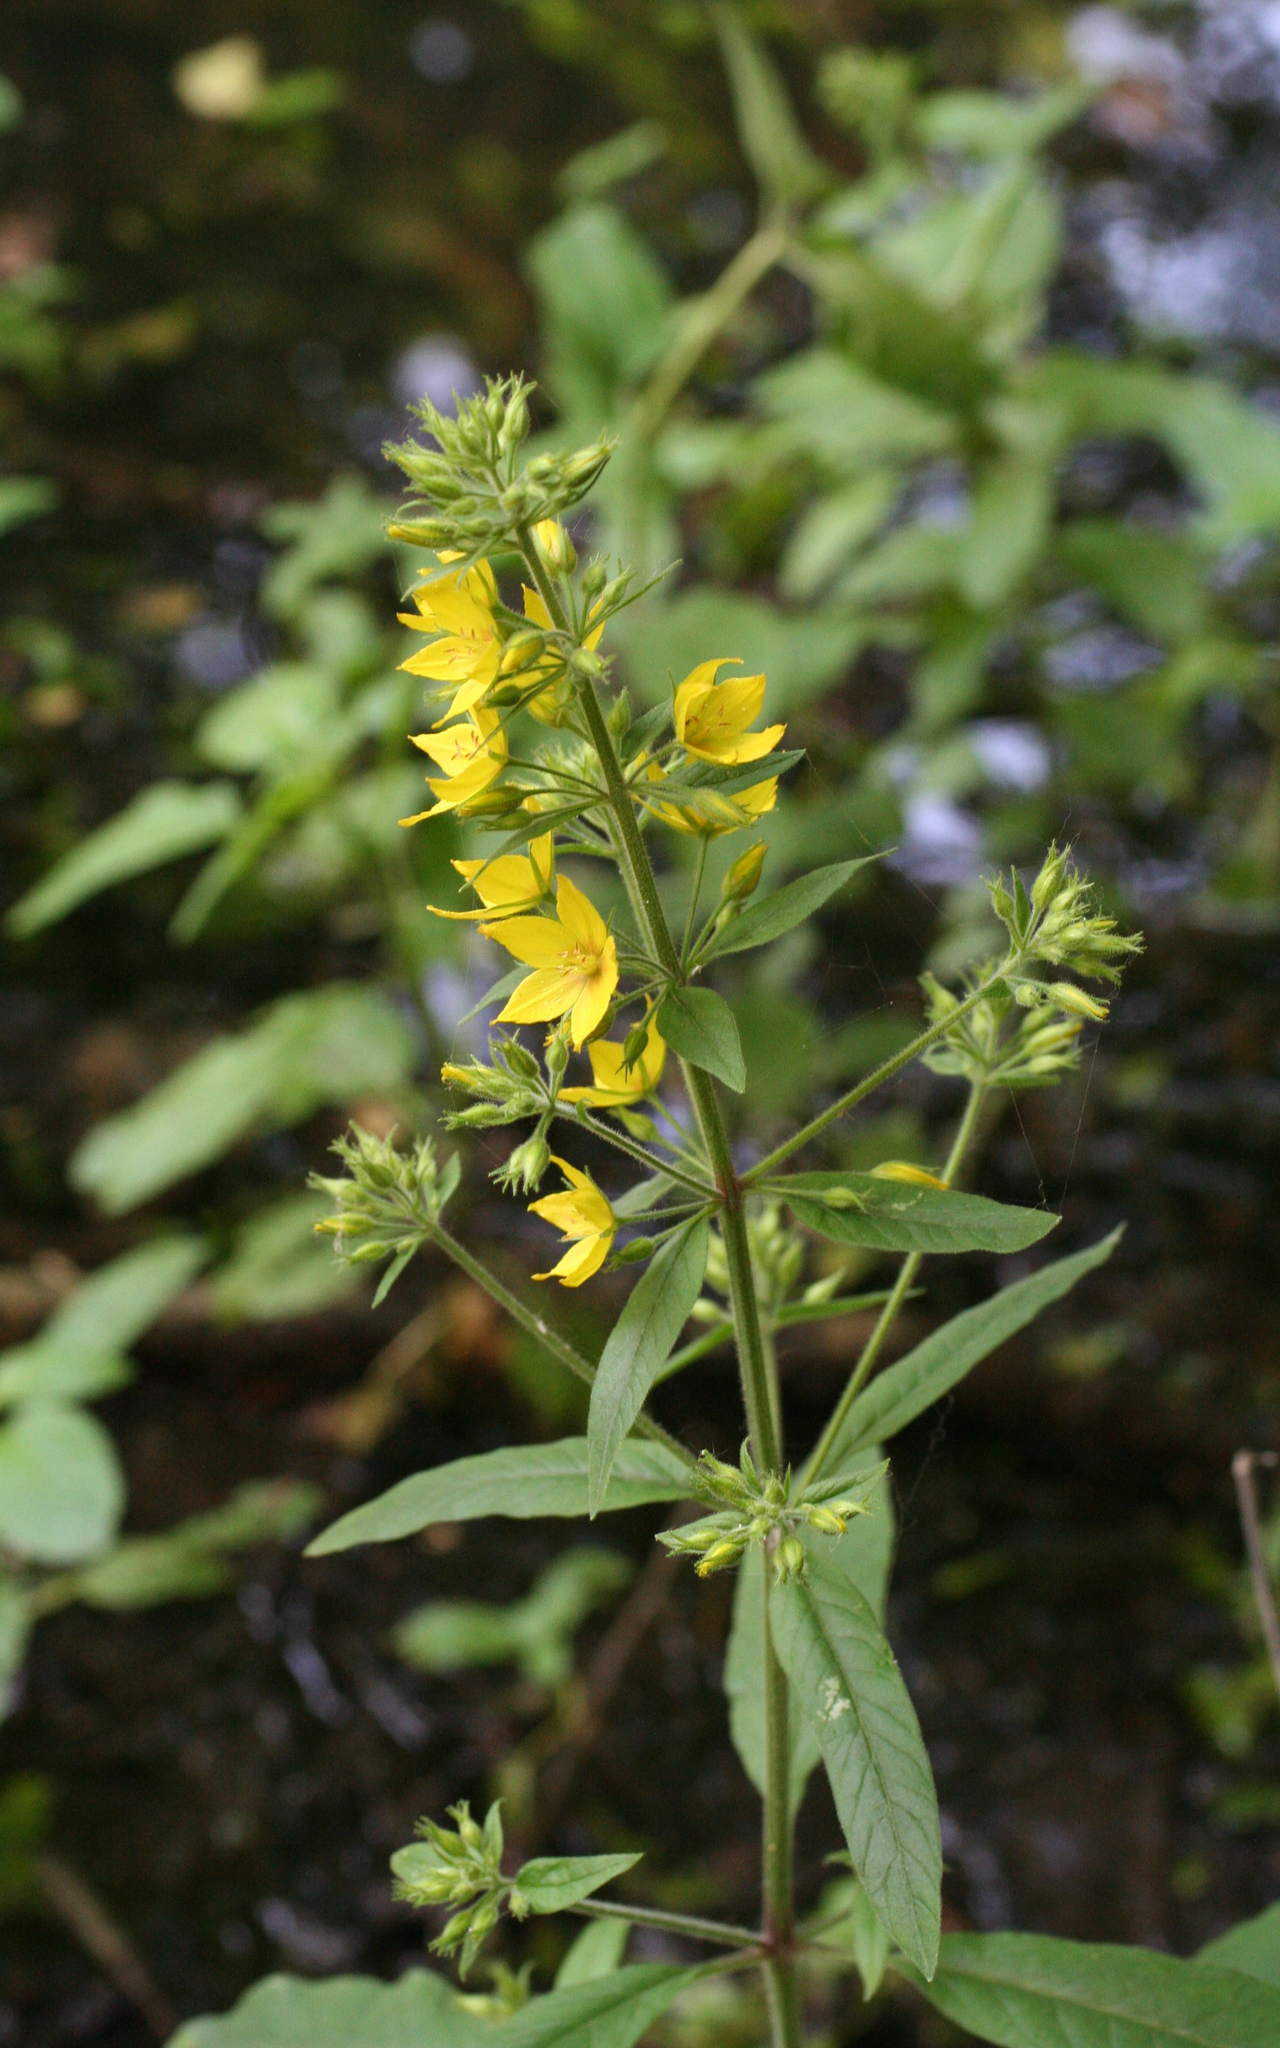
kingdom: Plantae
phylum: Tracheophyta
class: Magnoliopsida
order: Ericales
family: Primulaceae
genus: Lysimachia
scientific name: Lysimachia verticillaris
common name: Yellow loosestrife
